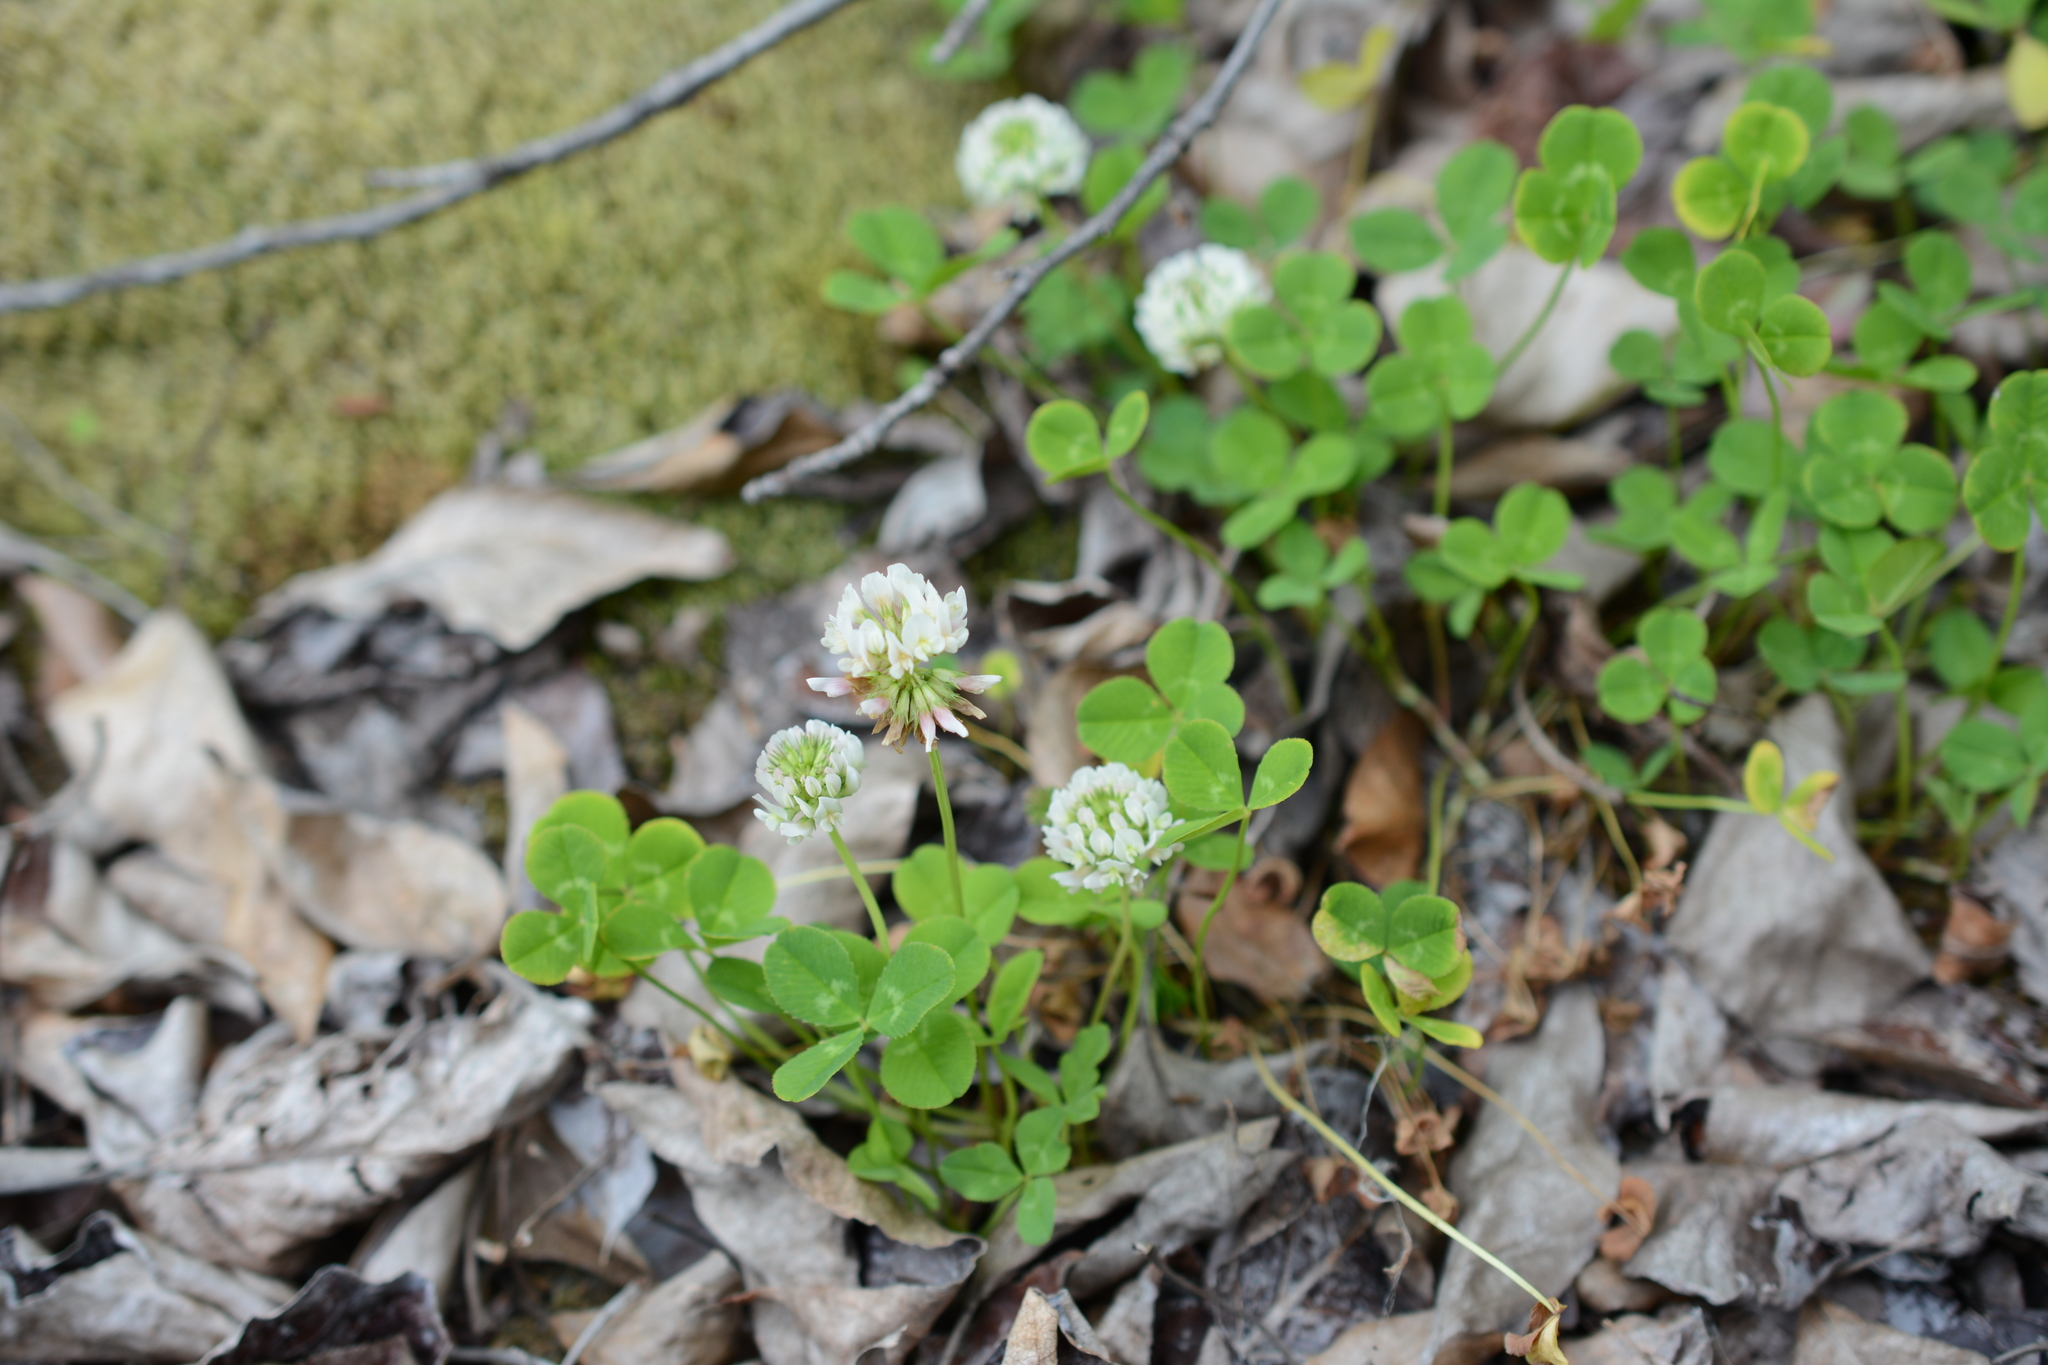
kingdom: Plantae
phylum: Tracheophyta
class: Magnoliopsida
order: Fabales
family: Fabaceae
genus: Trifolium
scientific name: Trifolium repens
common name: White clover
